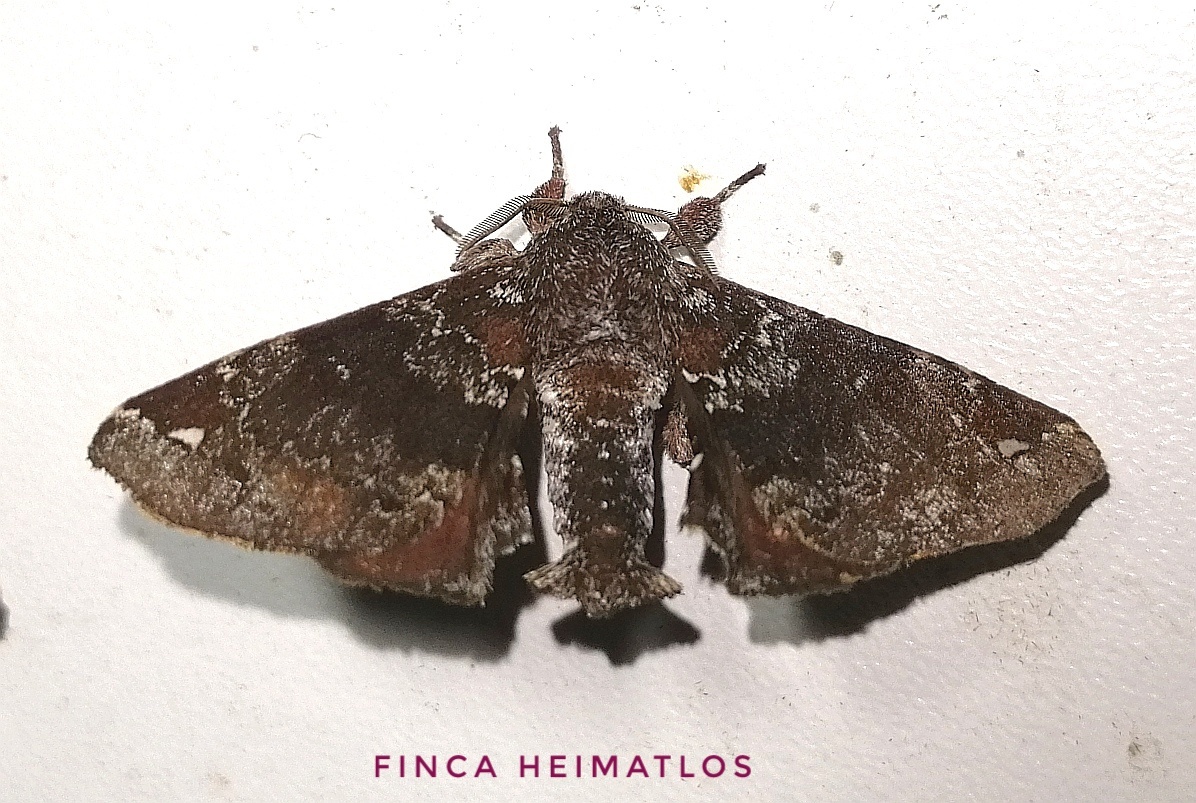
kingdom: Animalia
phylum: Arthropoda
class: Insecta
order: Lepidoptera
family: Apatelodidae
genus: Hygrochroa
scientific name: Hygrochroa Apatelodes albipunctata
